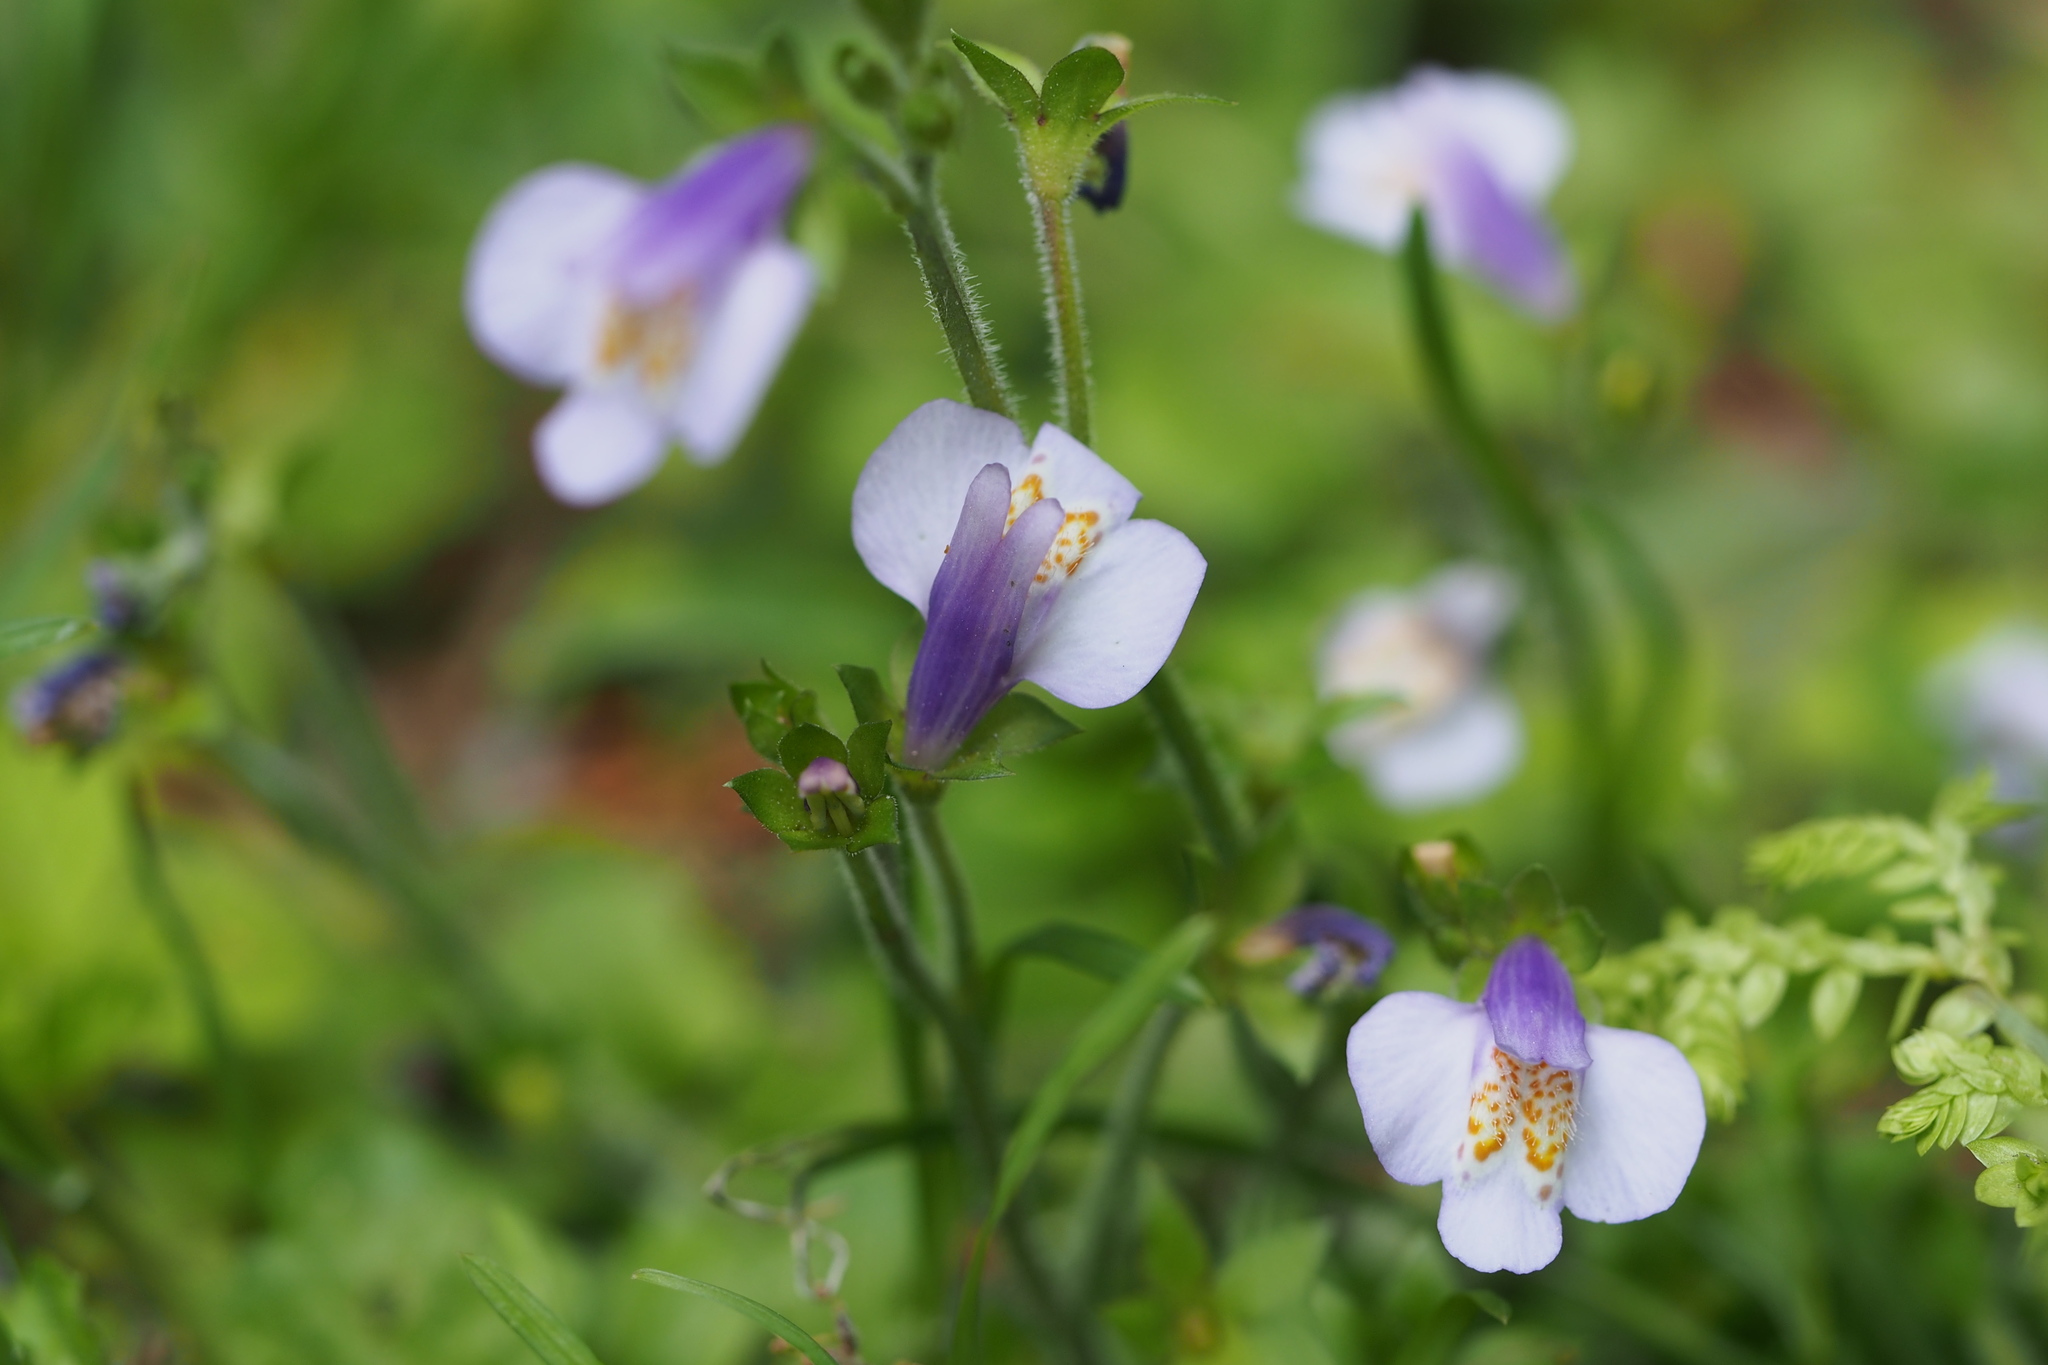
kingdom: Plantae
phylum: Tracheophyta
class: Magnoliopsida
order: Lamiales
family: Mazaceae
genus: Mazus
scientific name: Mazus miquelii
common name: Miquel's mazus
